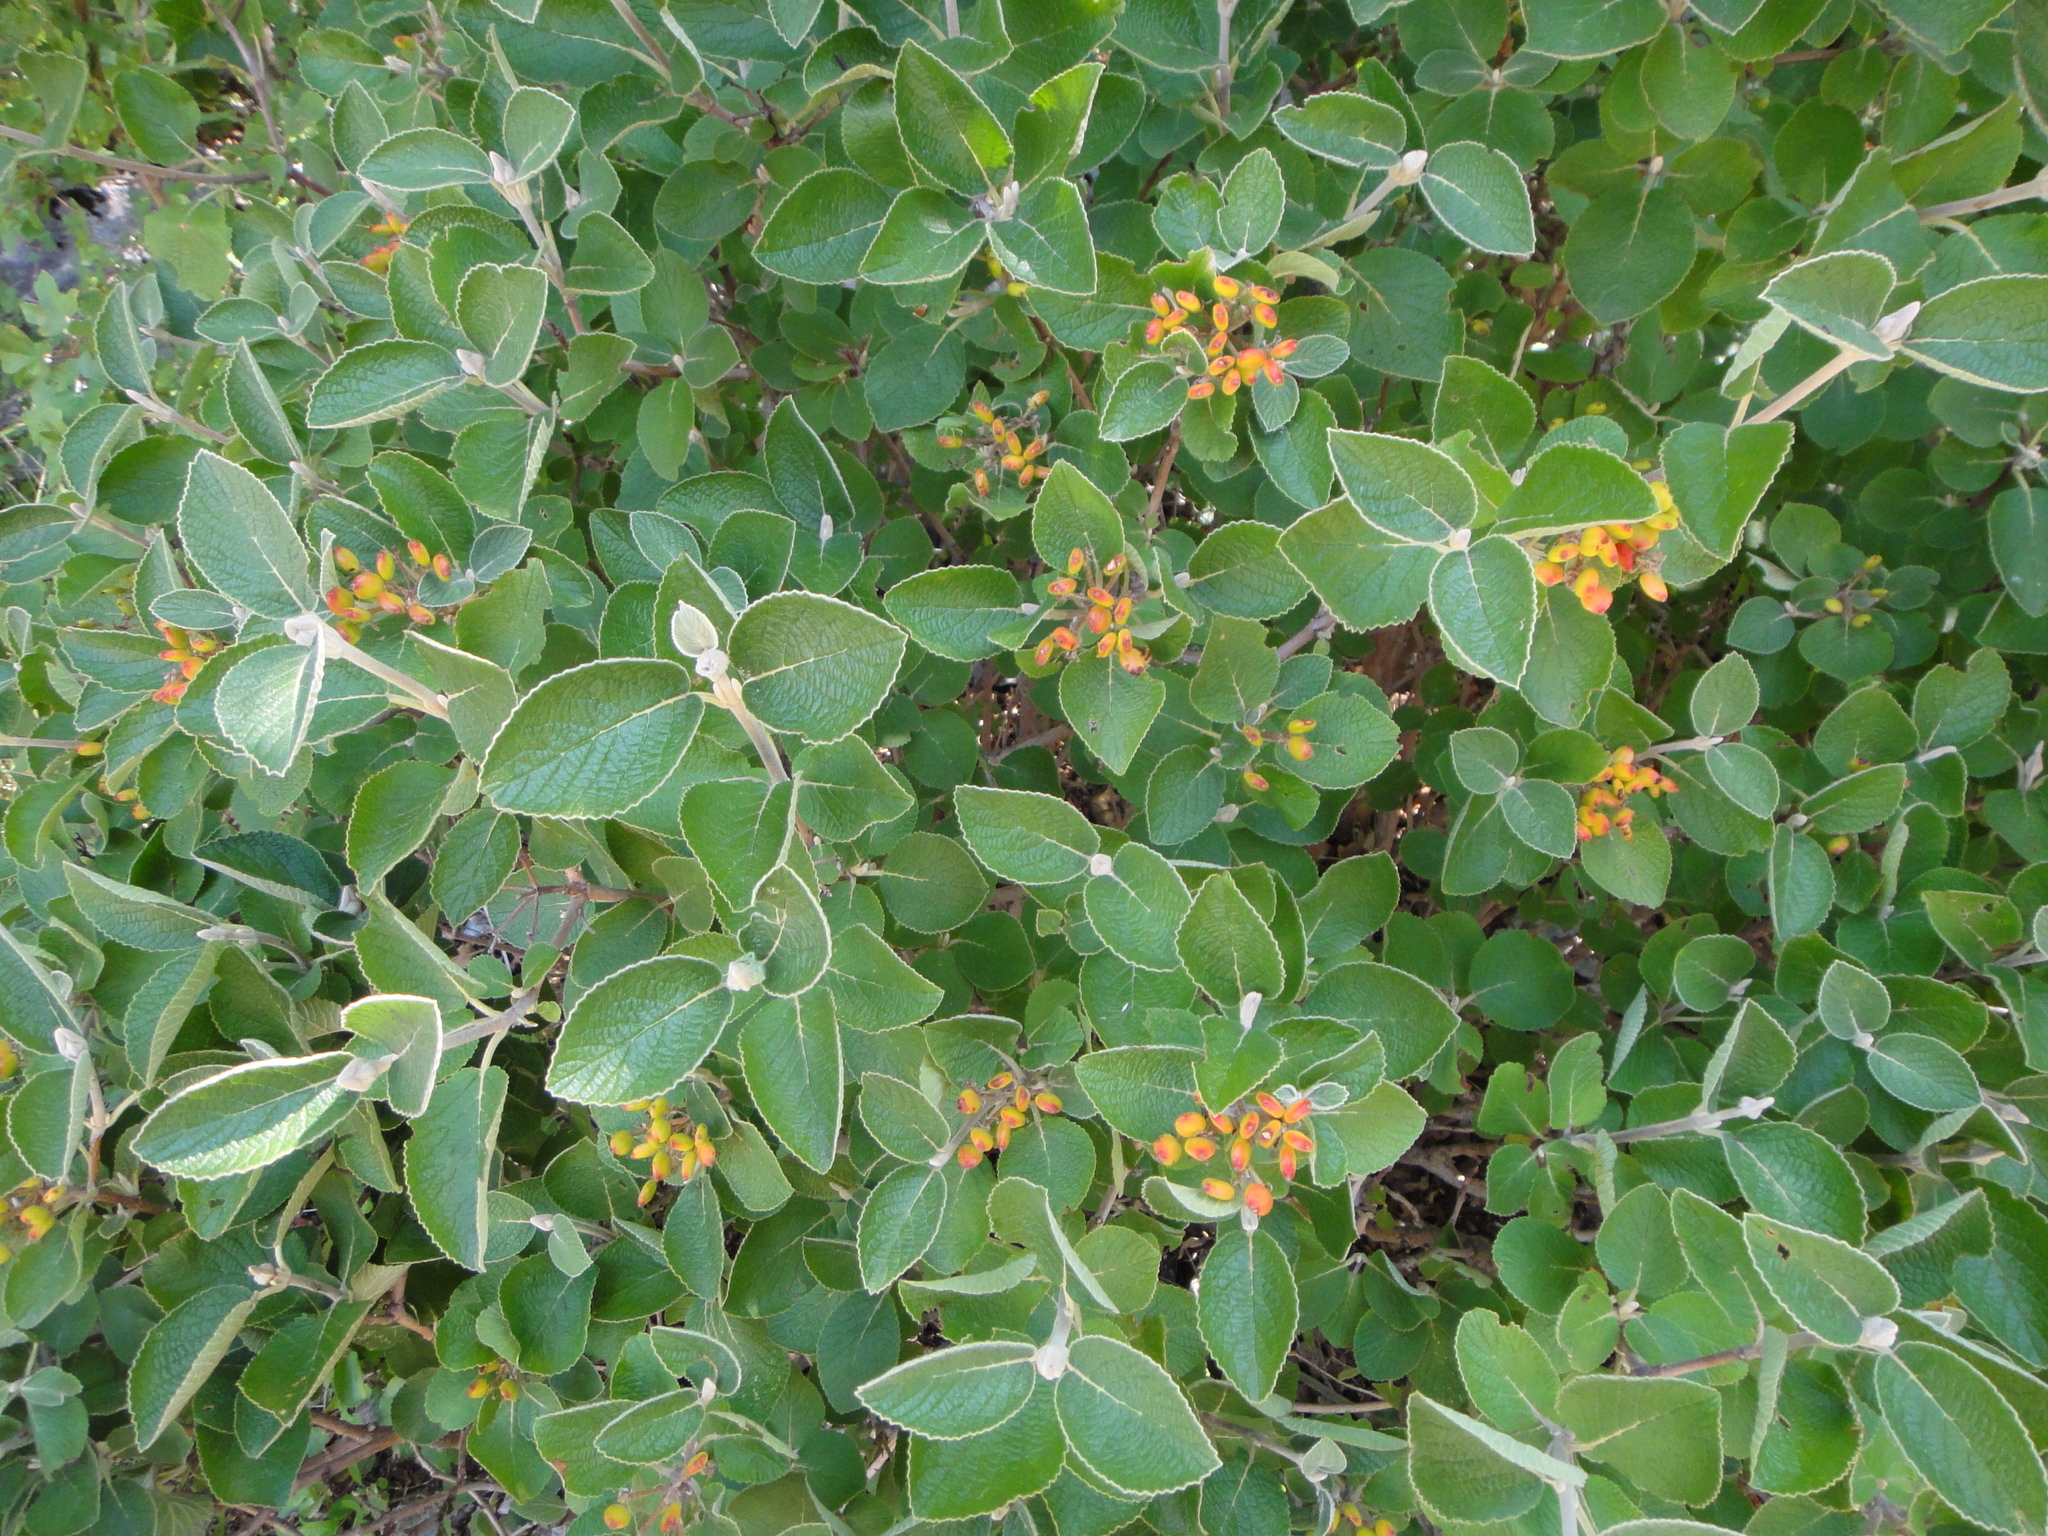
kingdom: Plantae
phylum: Tracheophyta
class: Magnoliopsida
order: Dipsacales
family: Viburnaceae
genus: Viburnum
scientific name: Viburnum lantana
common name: Wayfaring tree
